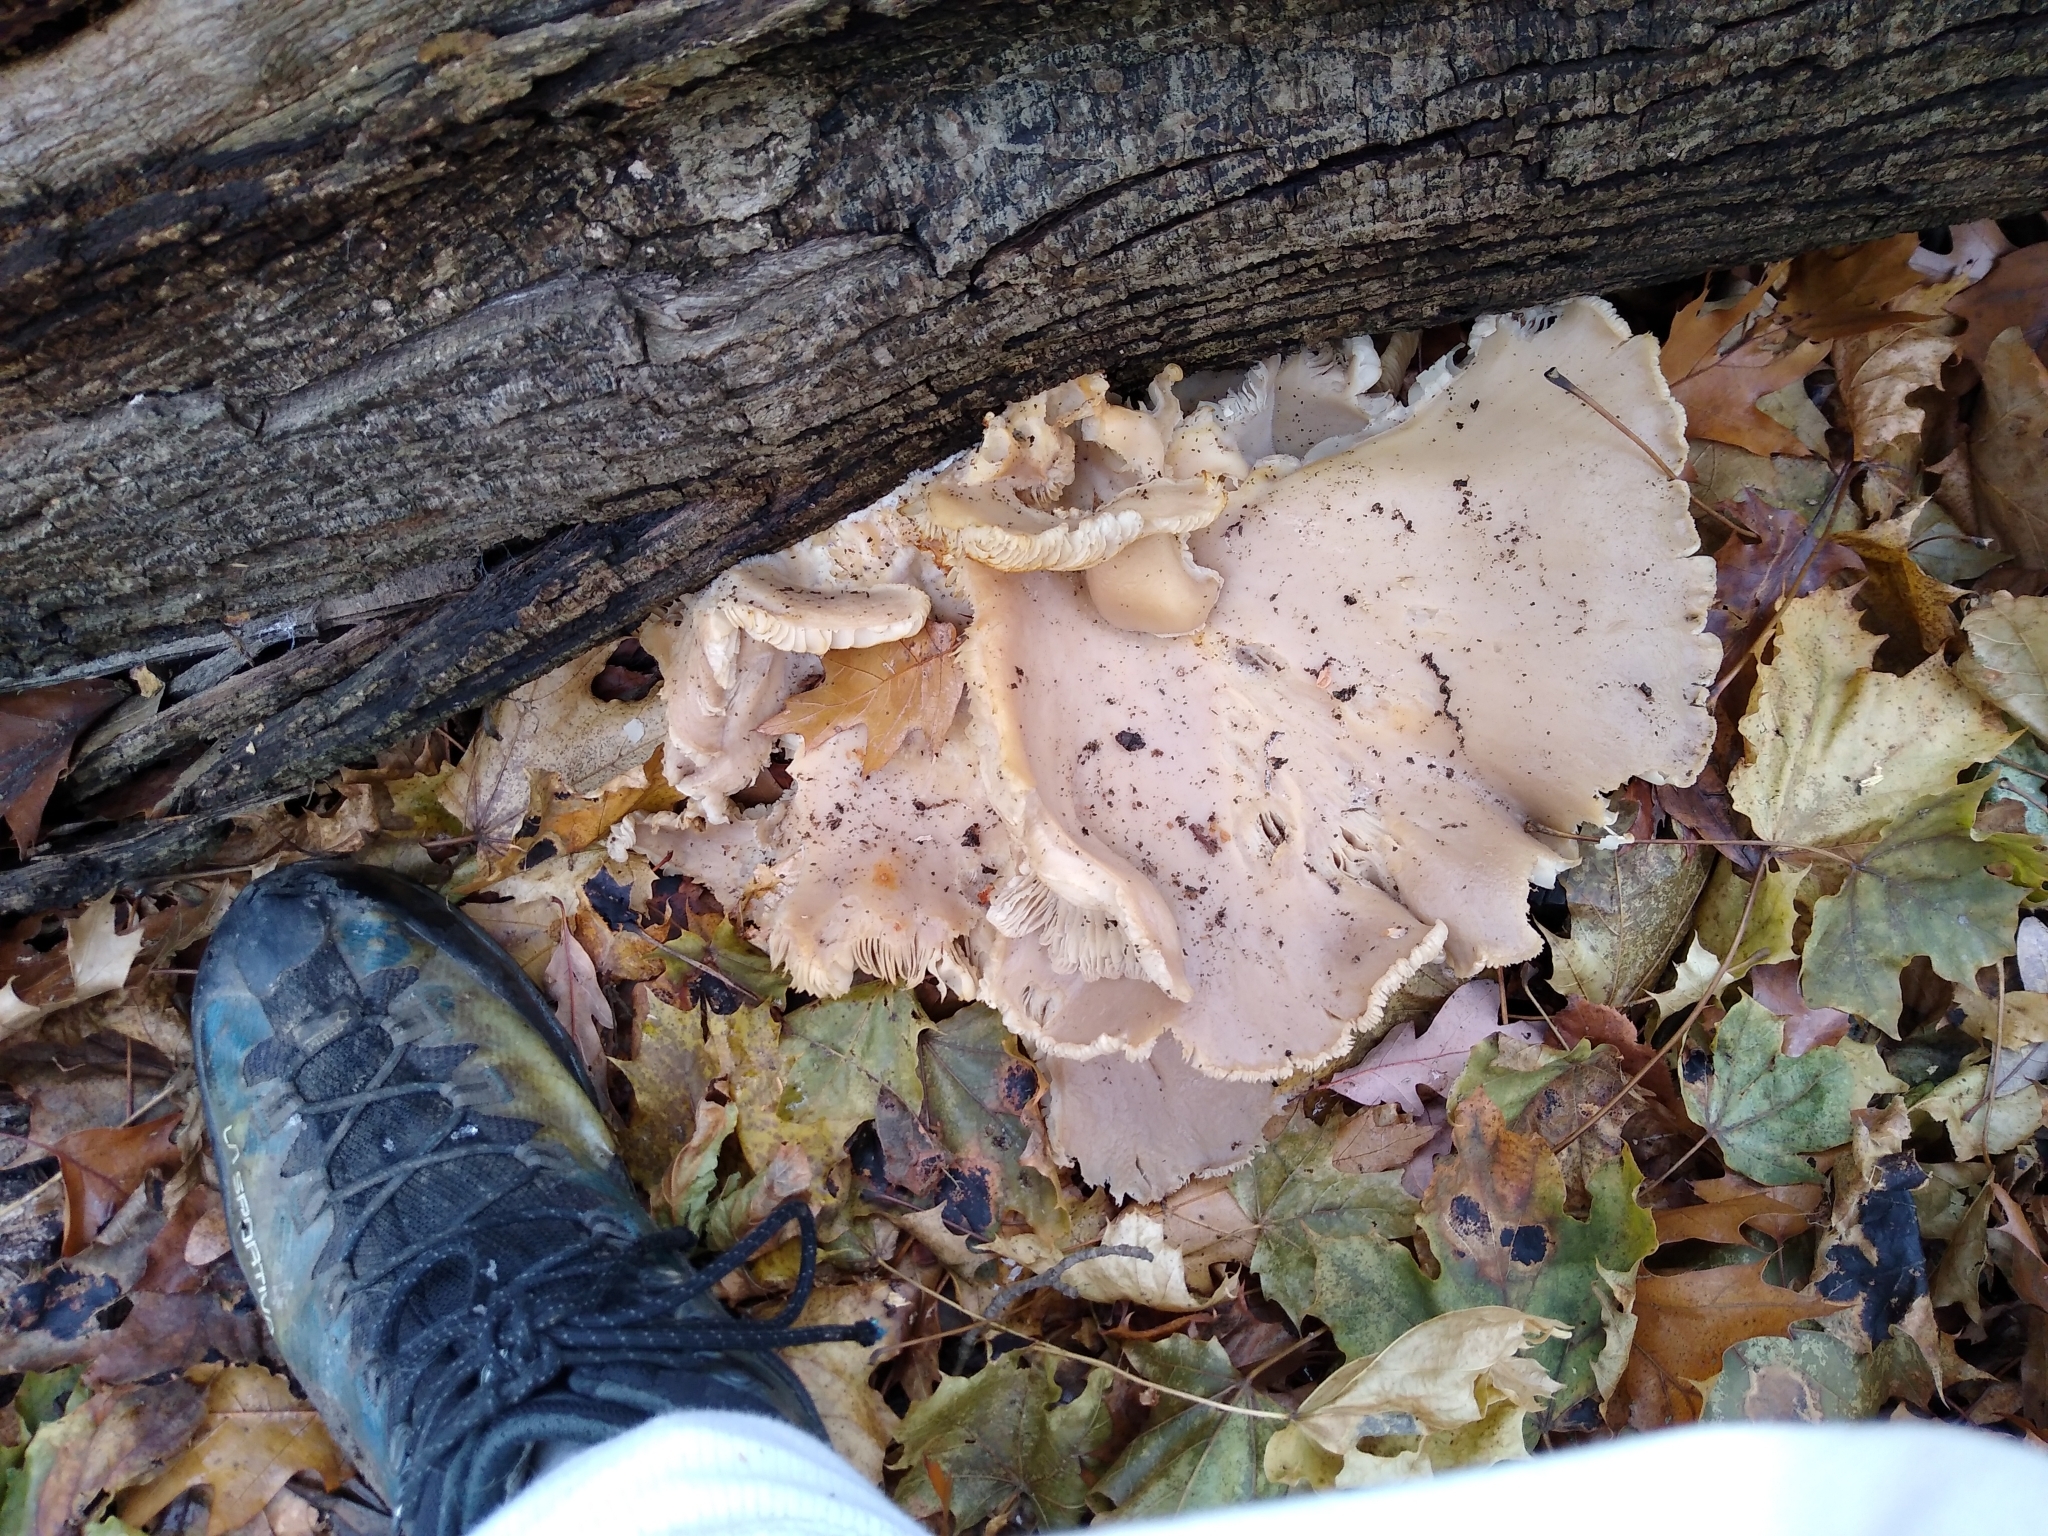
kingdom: Fungi
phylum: Basidiomycota
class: Agaricomycetes
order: Agaricales
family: Pleurotaceae
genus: Pleurotus
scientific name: Pleurotus ostreatus
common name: Oyster mushroom
